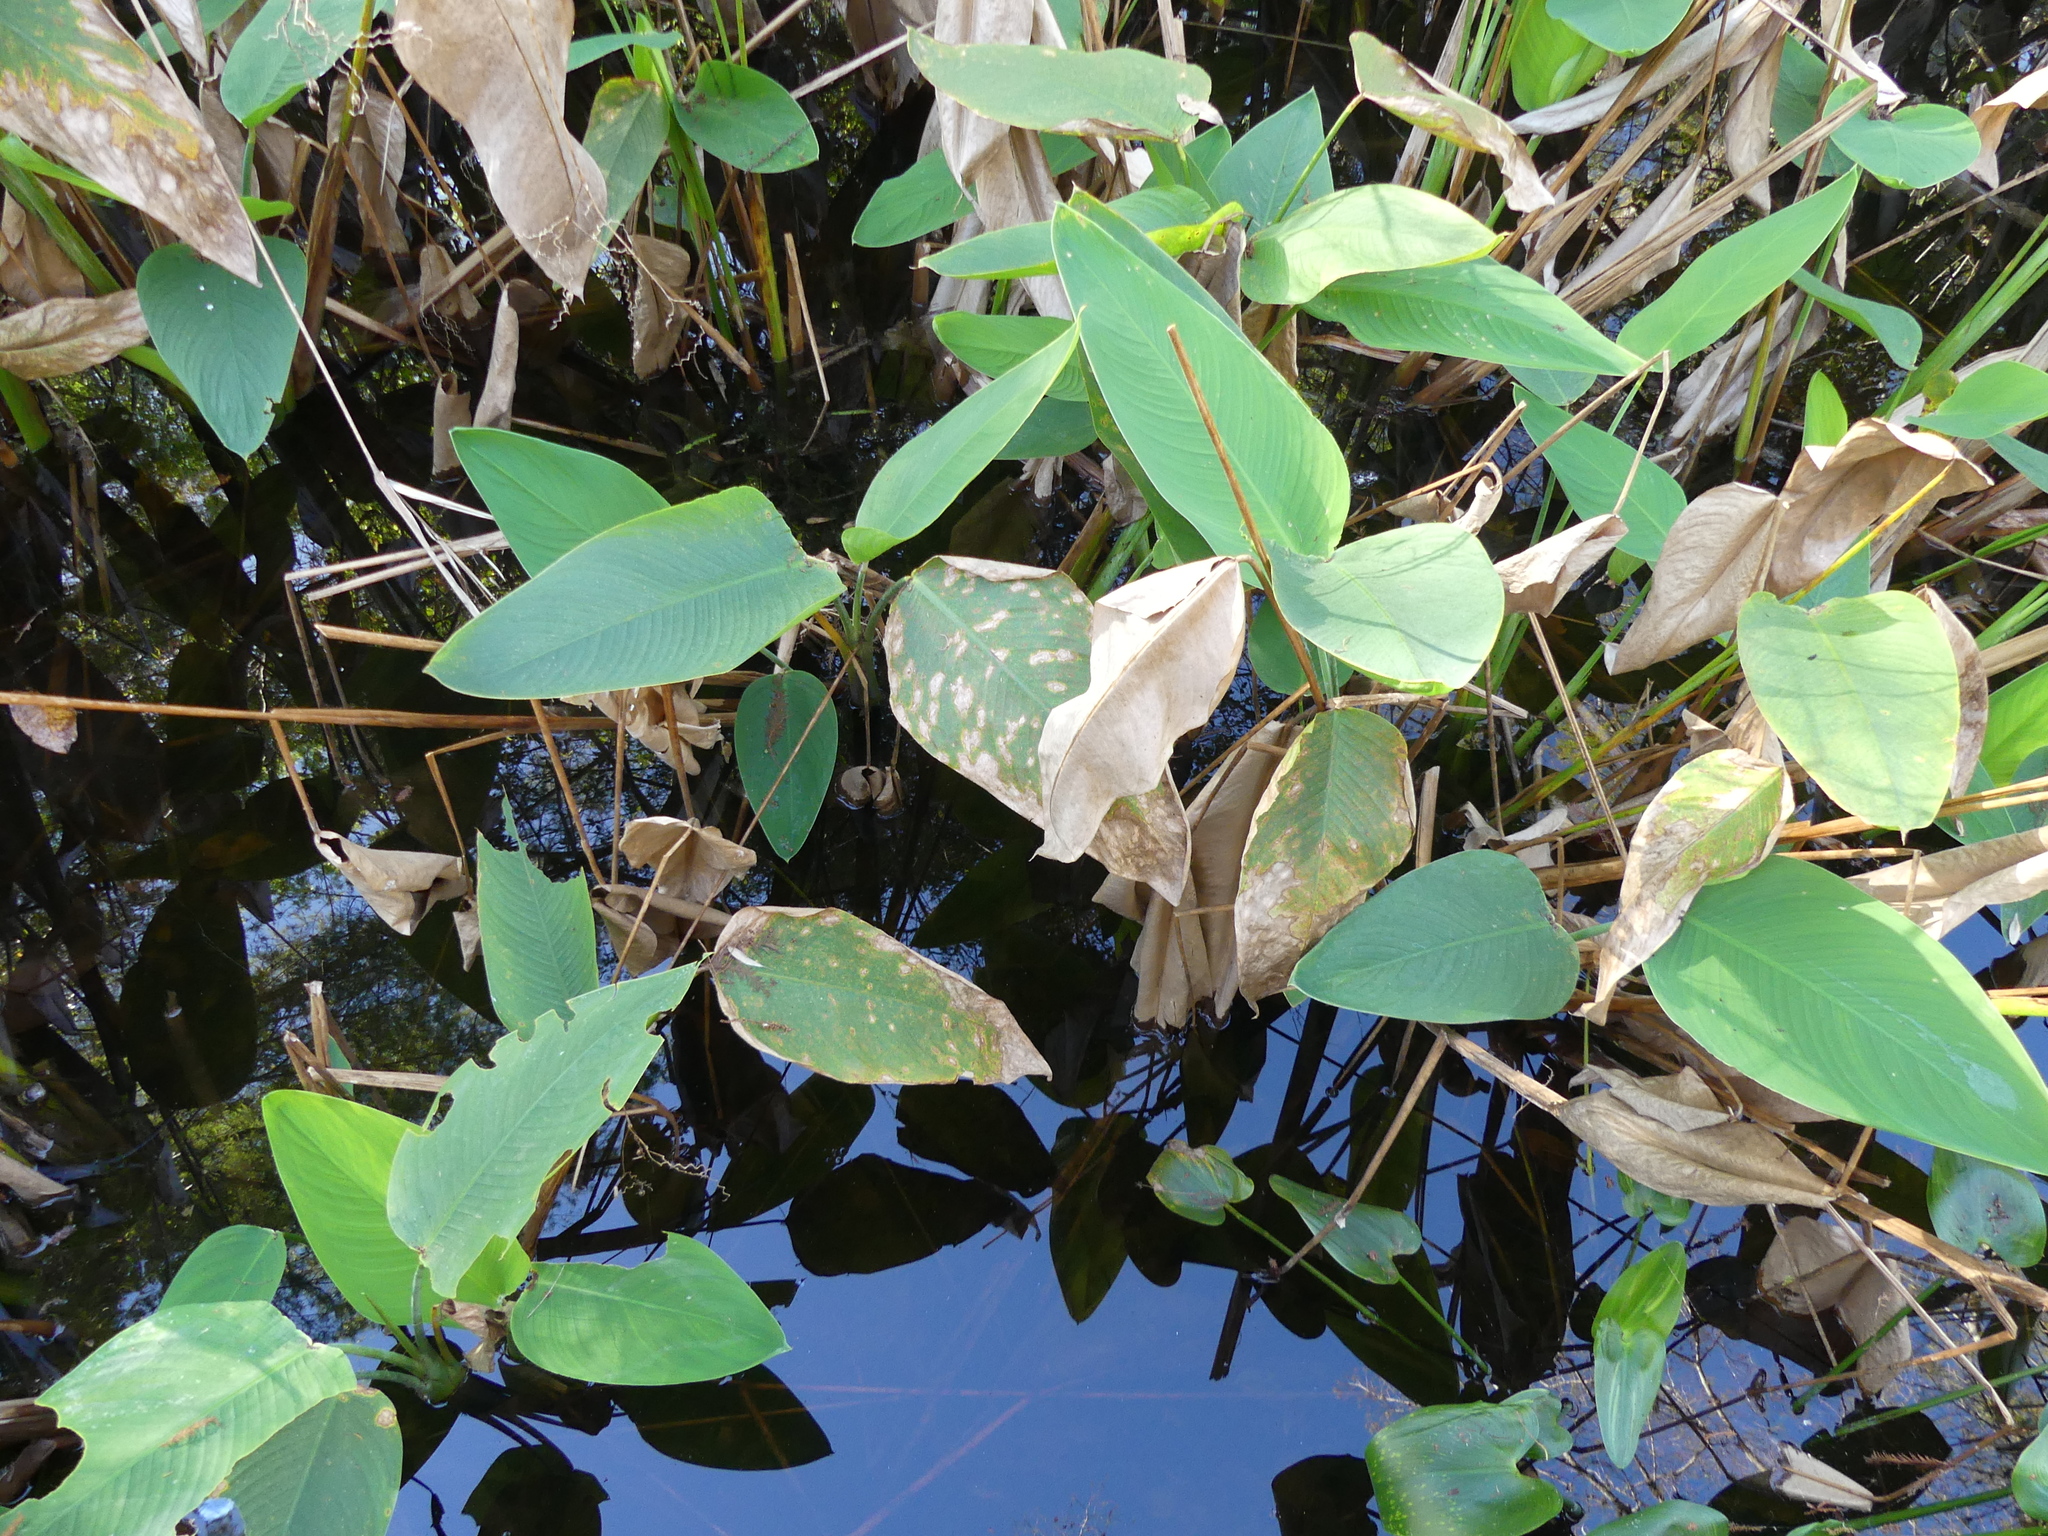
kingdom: Plantae
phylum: Tracheophyta
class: Liliopsida
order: Zingiberales
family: Marantaceae
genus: Thalia
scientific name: Thalia geniculata
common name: Arrowroot
